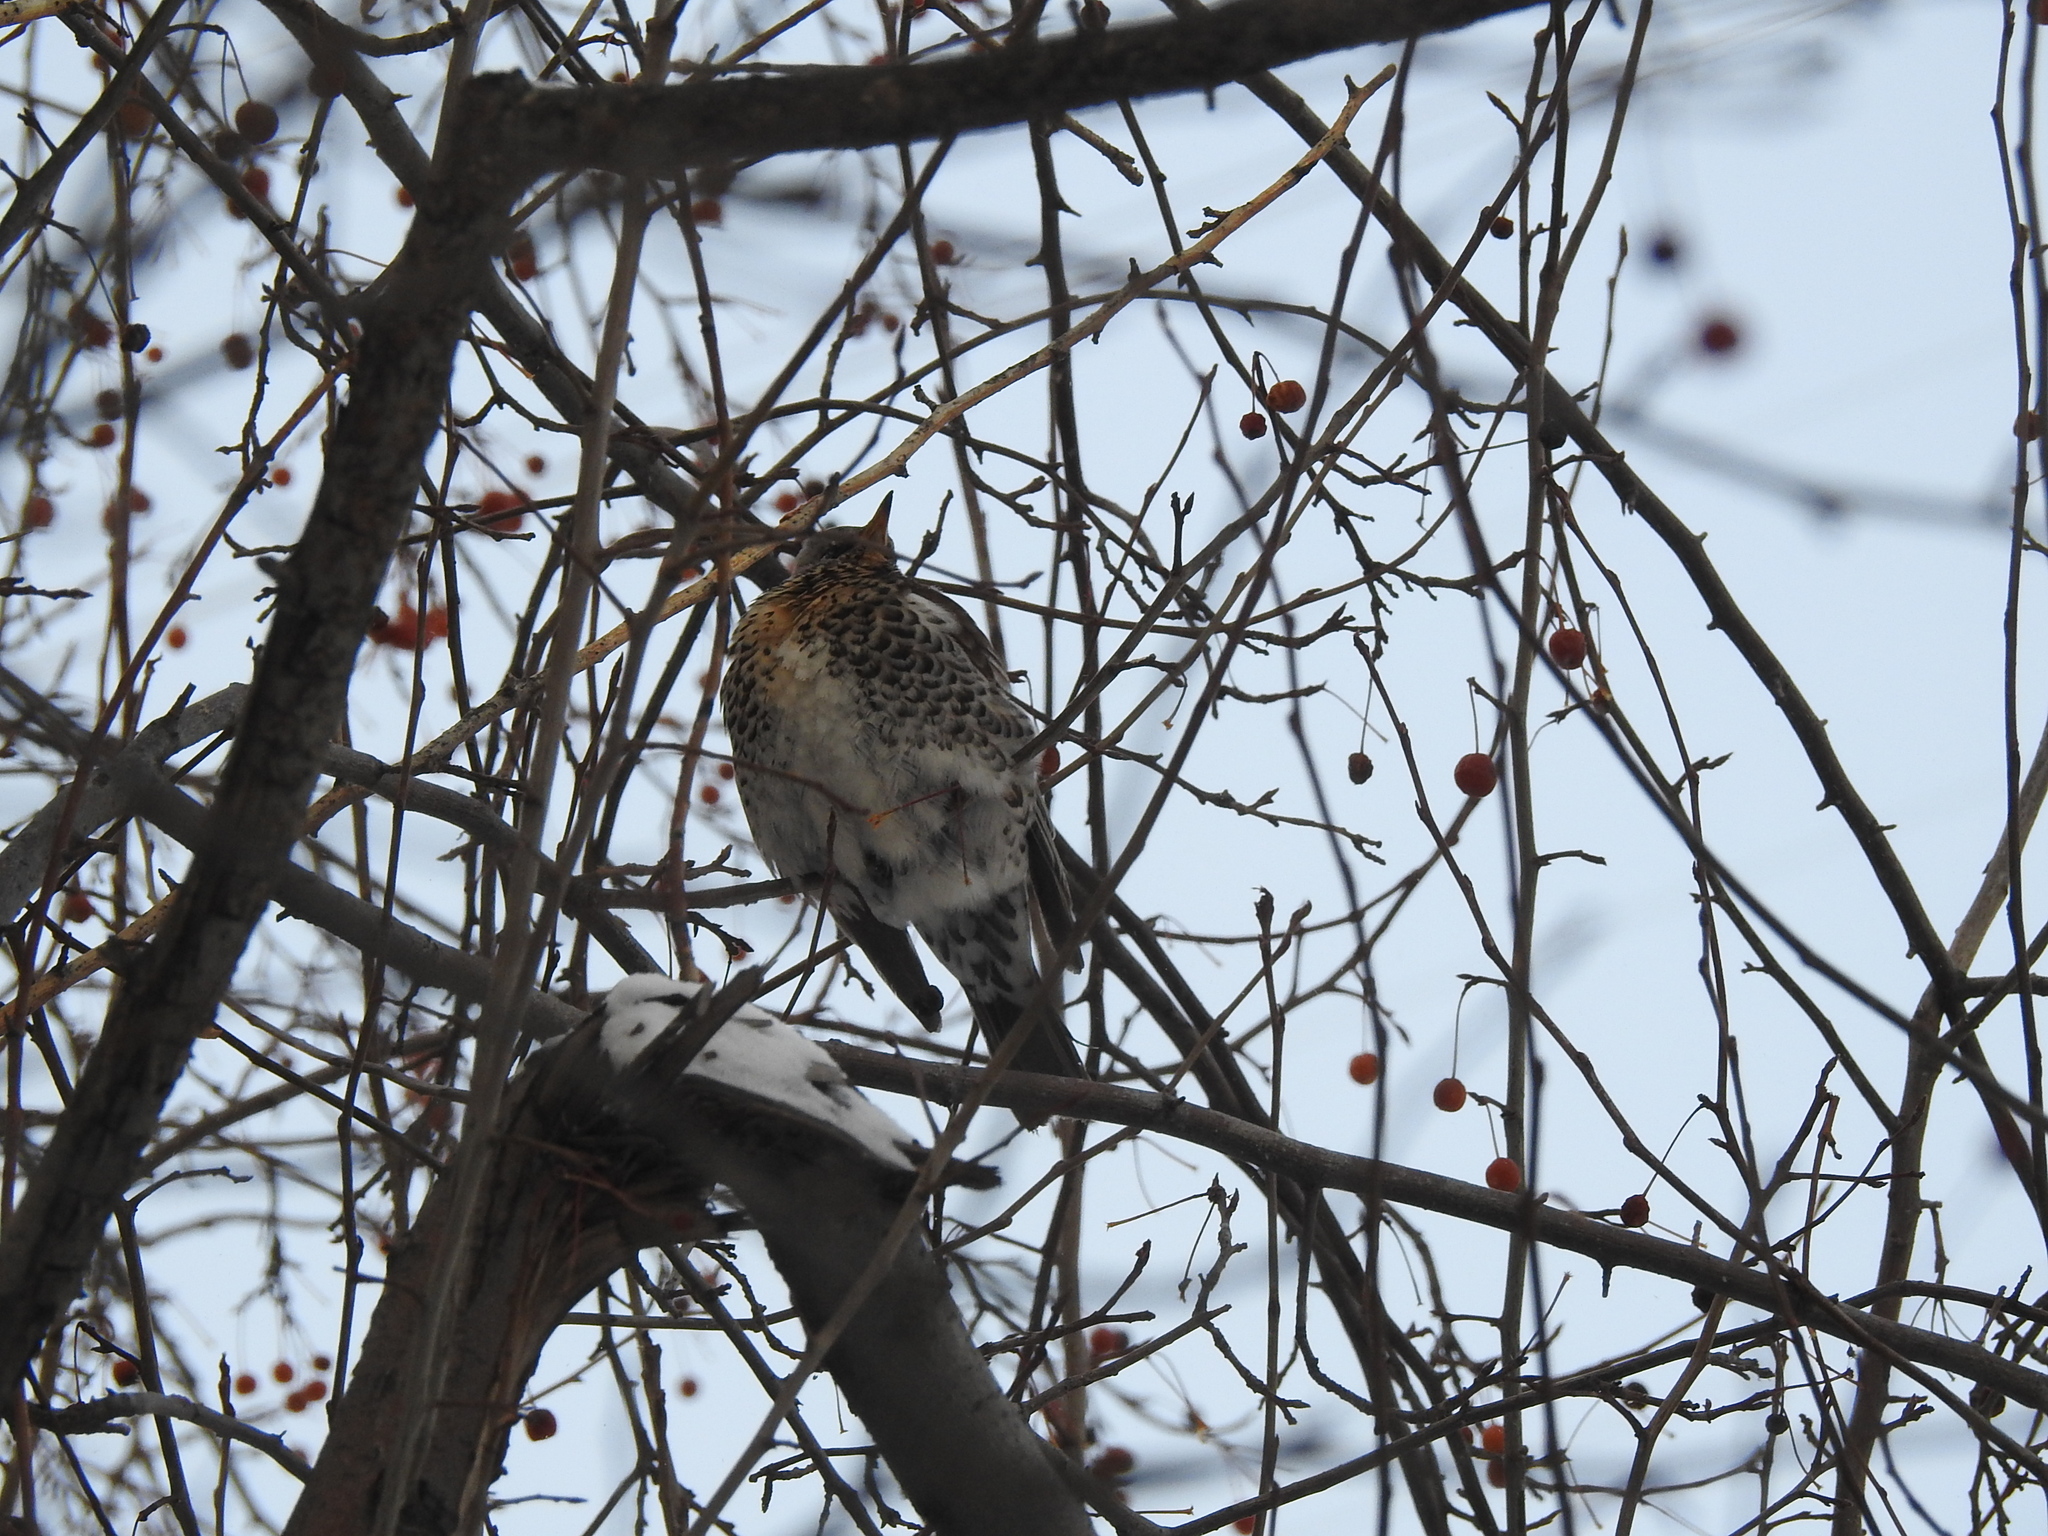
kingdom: Animalia
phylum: Chordata
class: Aves
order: Passeriformes
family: Turdidae
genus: Turdus
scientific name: Turdus pilaris
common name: Fieldfare
